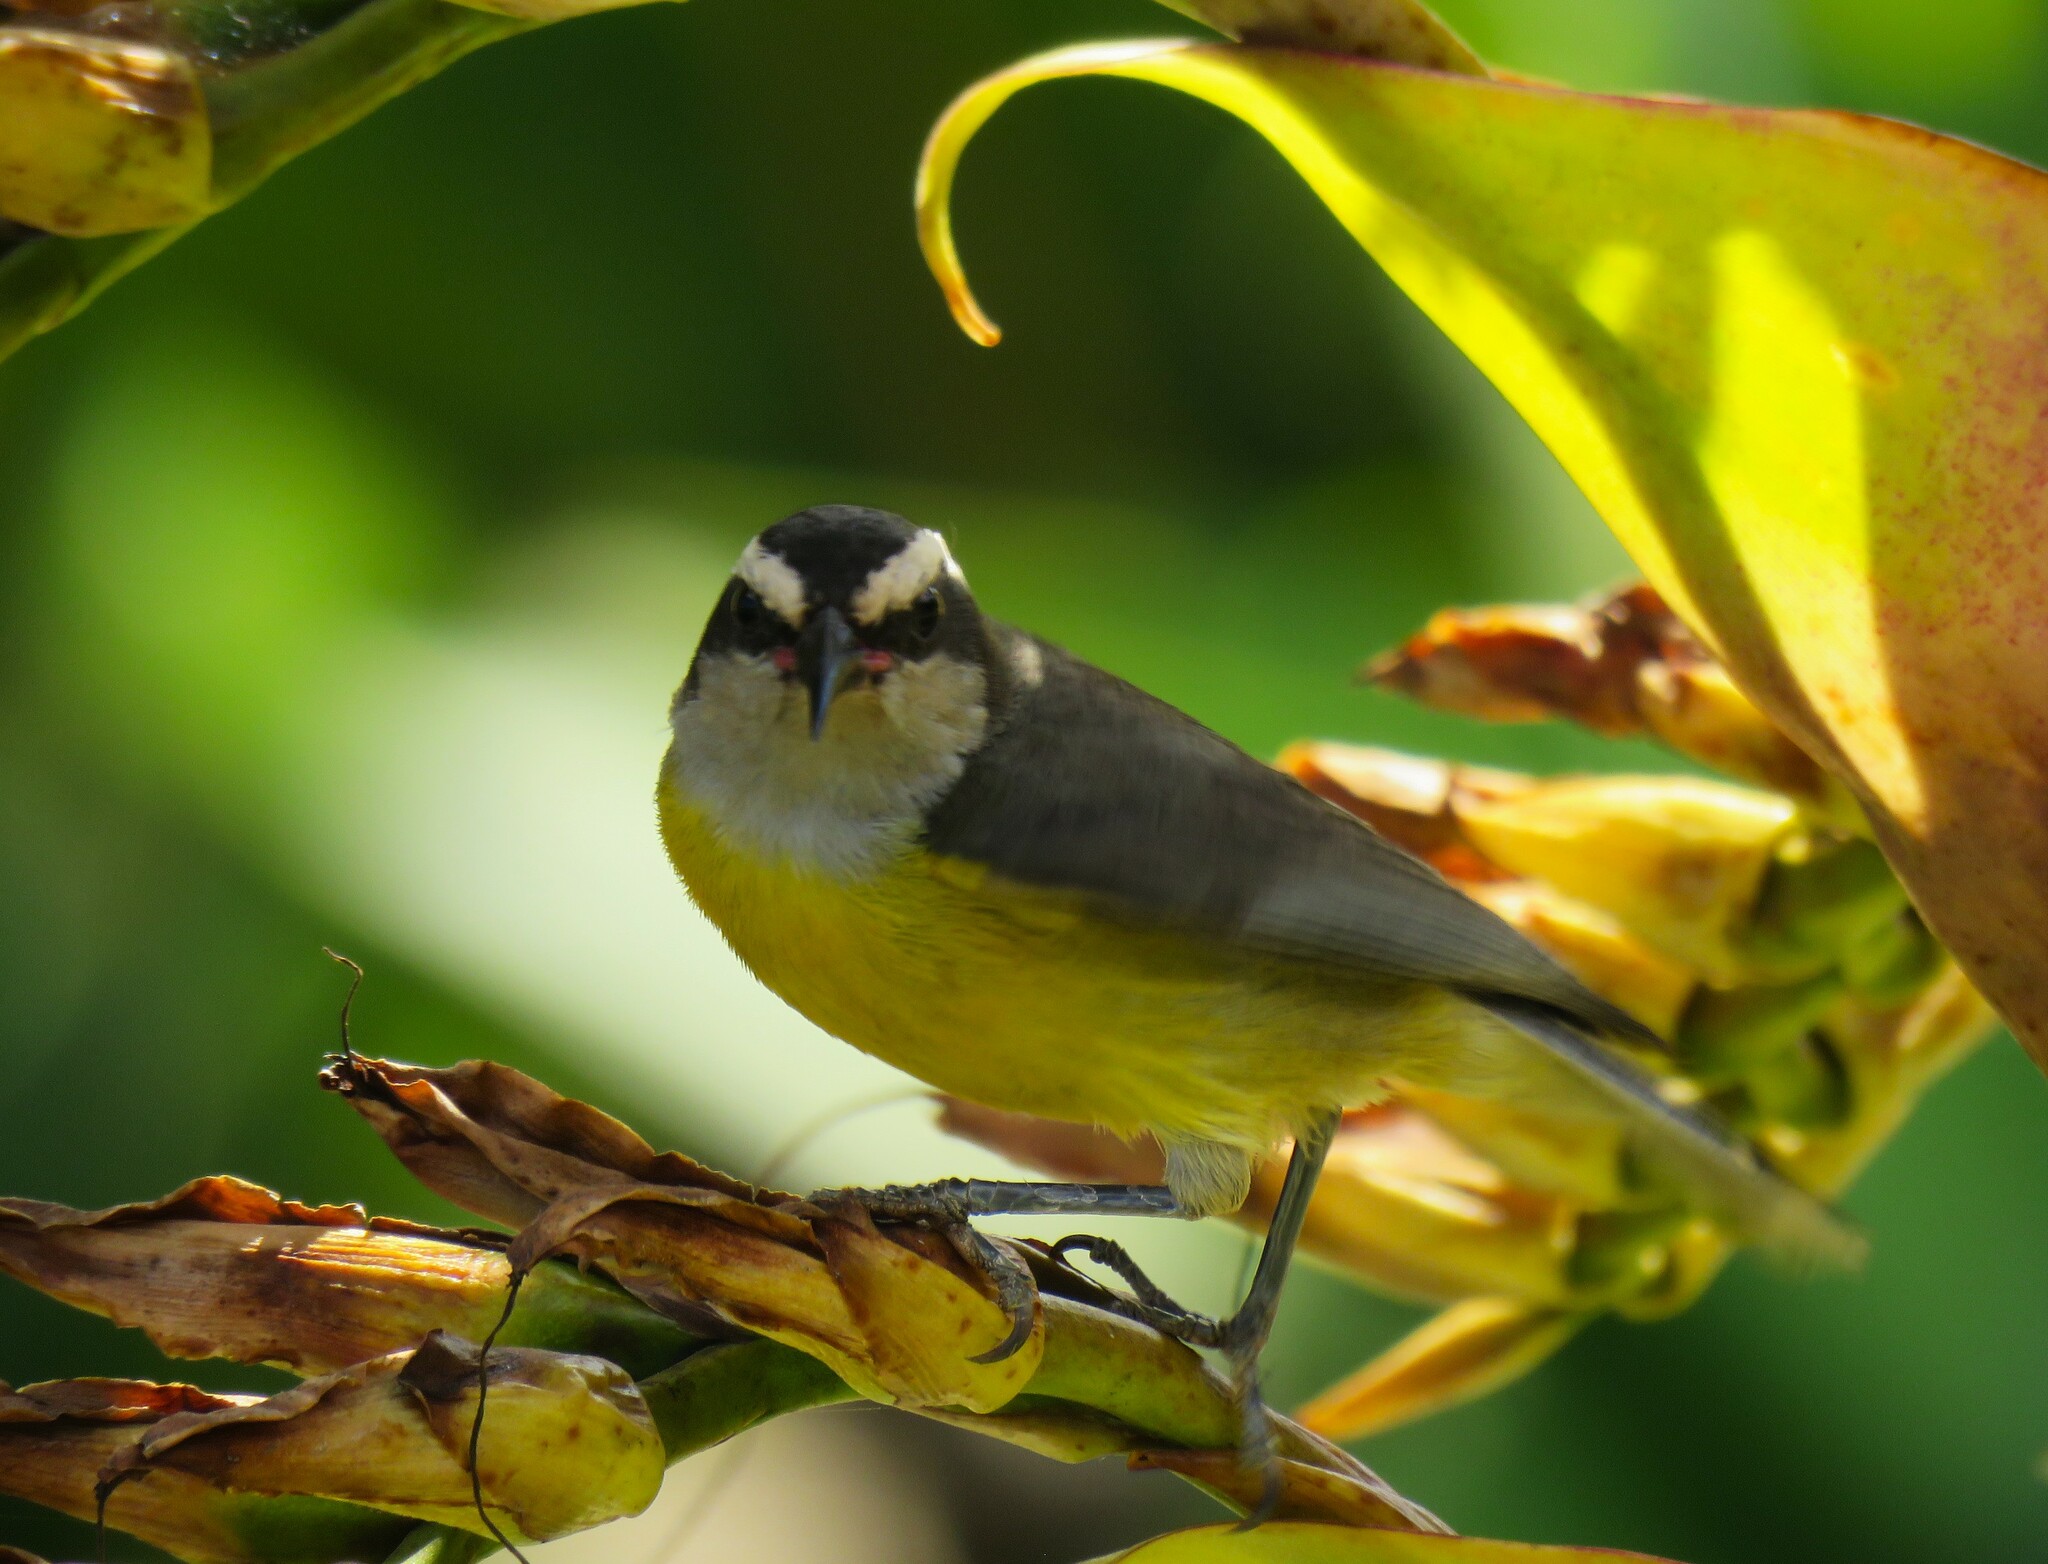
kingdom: Animalia
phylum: Chordata
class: Aves
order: Passeriformes
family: Thraupidae
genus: Coereba
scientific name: Coereba flaveola
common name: Bananaquit
